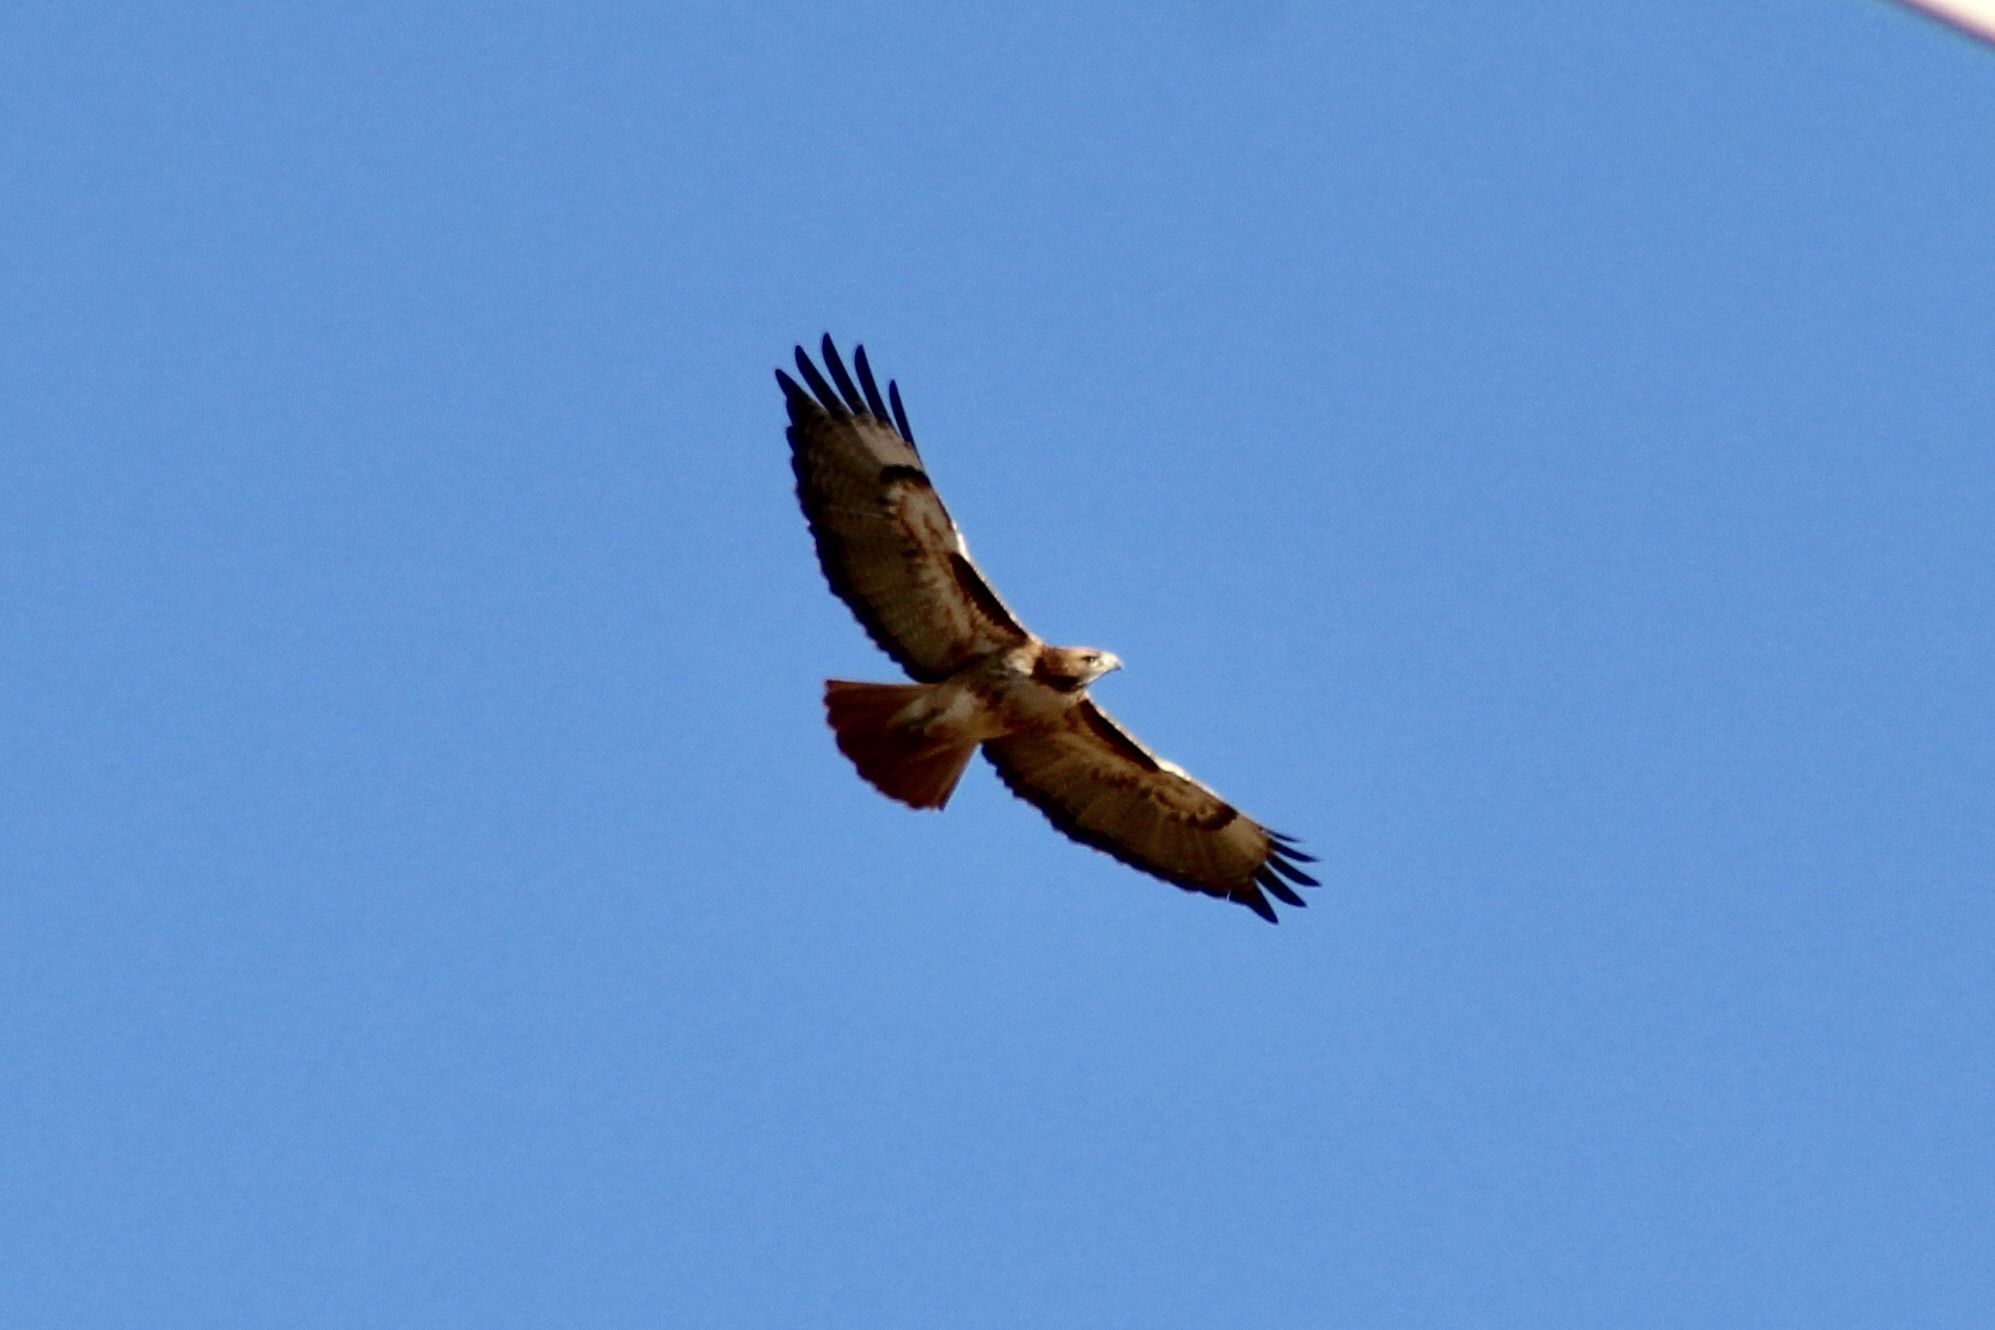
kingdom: Animalia
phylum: Chordata
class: Aves
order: Accipitriformes
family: Accipitridae
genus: Buteo
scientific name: Buteo jamaicensis
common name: Red-tailed hawk
